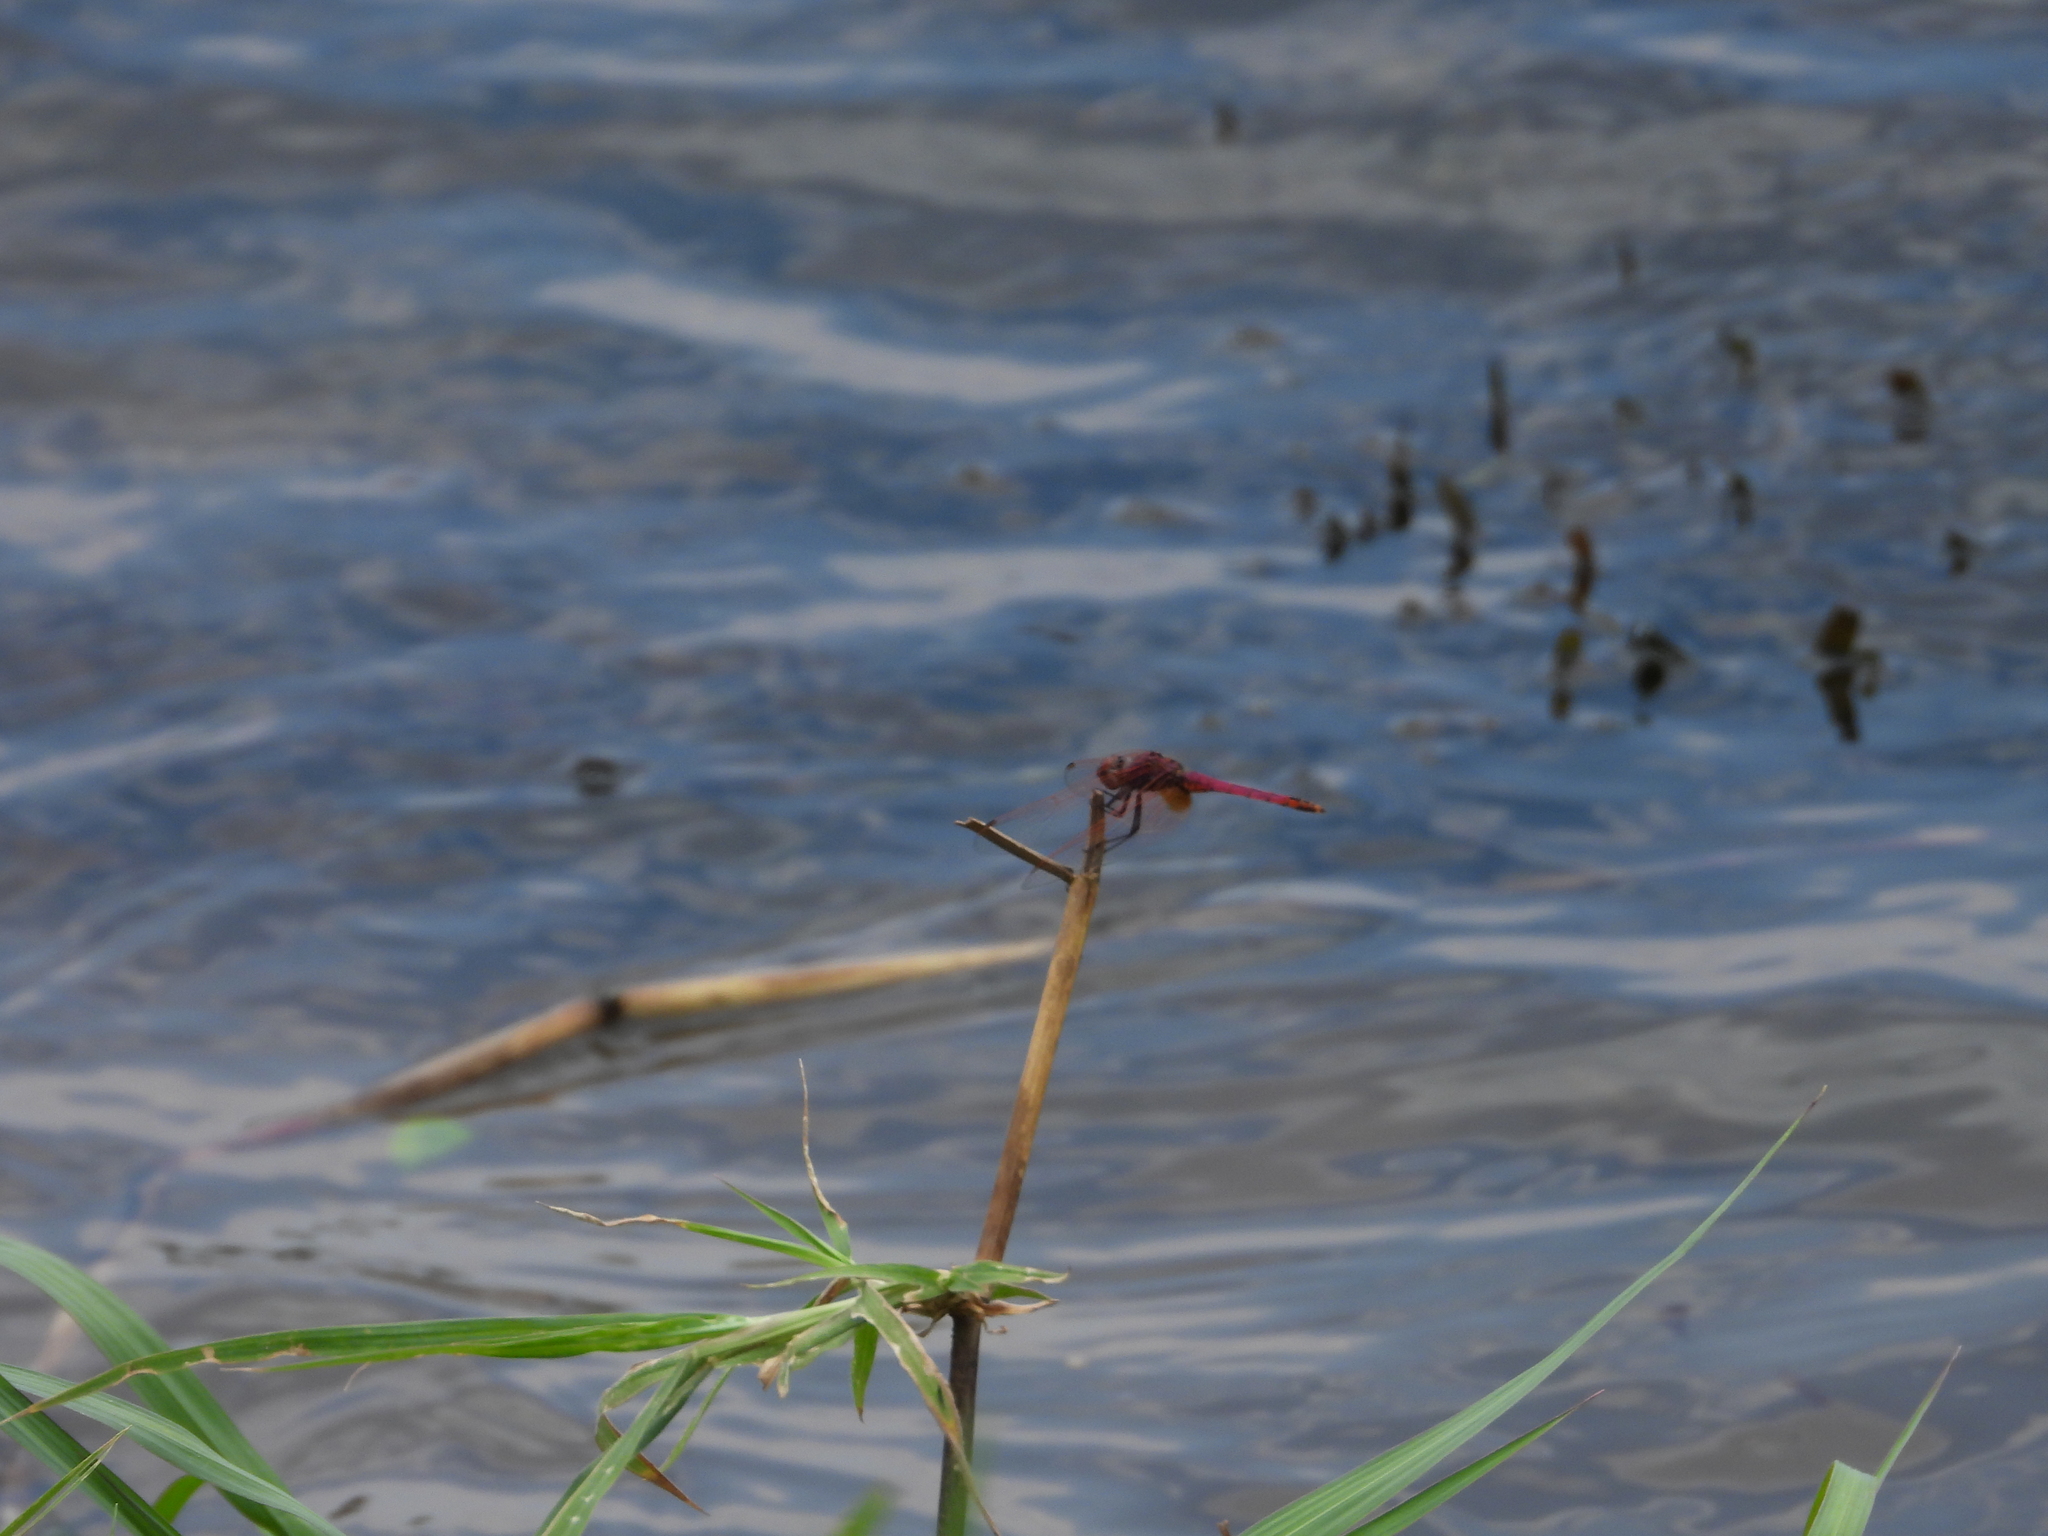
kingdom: Animalia
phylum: Arthropoda
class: Insecta
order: Odonata
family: Libellulidae
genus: Trithemis
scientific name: Trithemis arteriosa
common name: Red-veined dropwing
